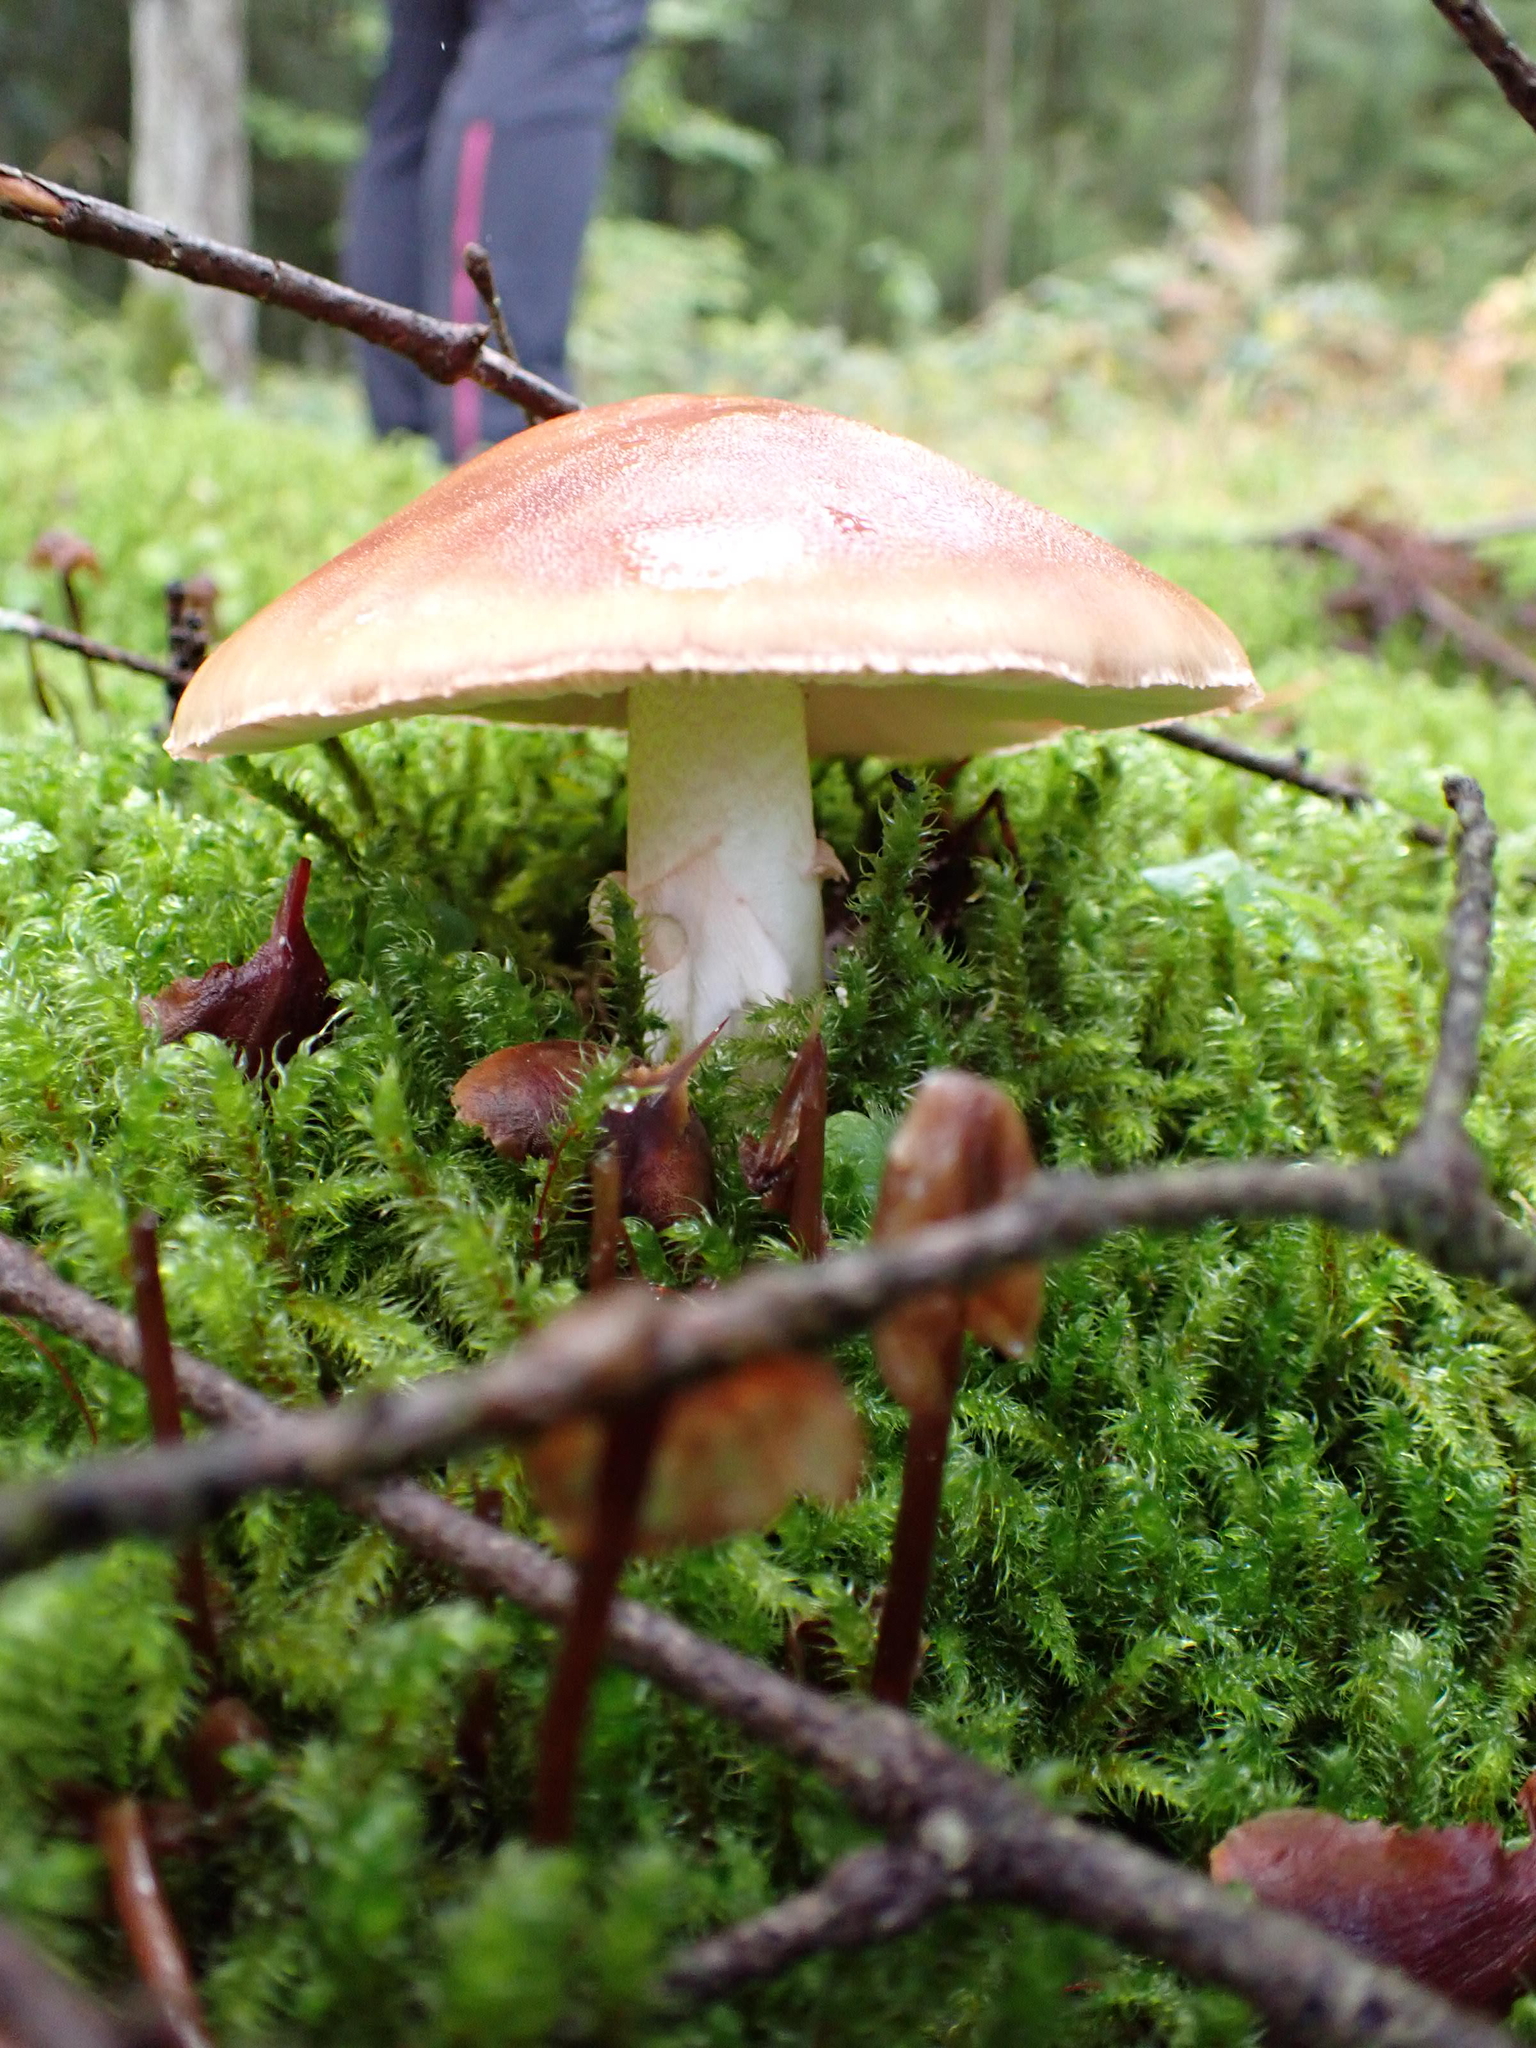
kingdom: Fungi
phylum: Basidiomycota
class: Agaricomycetes
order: Agaricales
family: Amanitaceae
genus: Amanita
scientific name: Amanita rubescens
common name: Blusher
